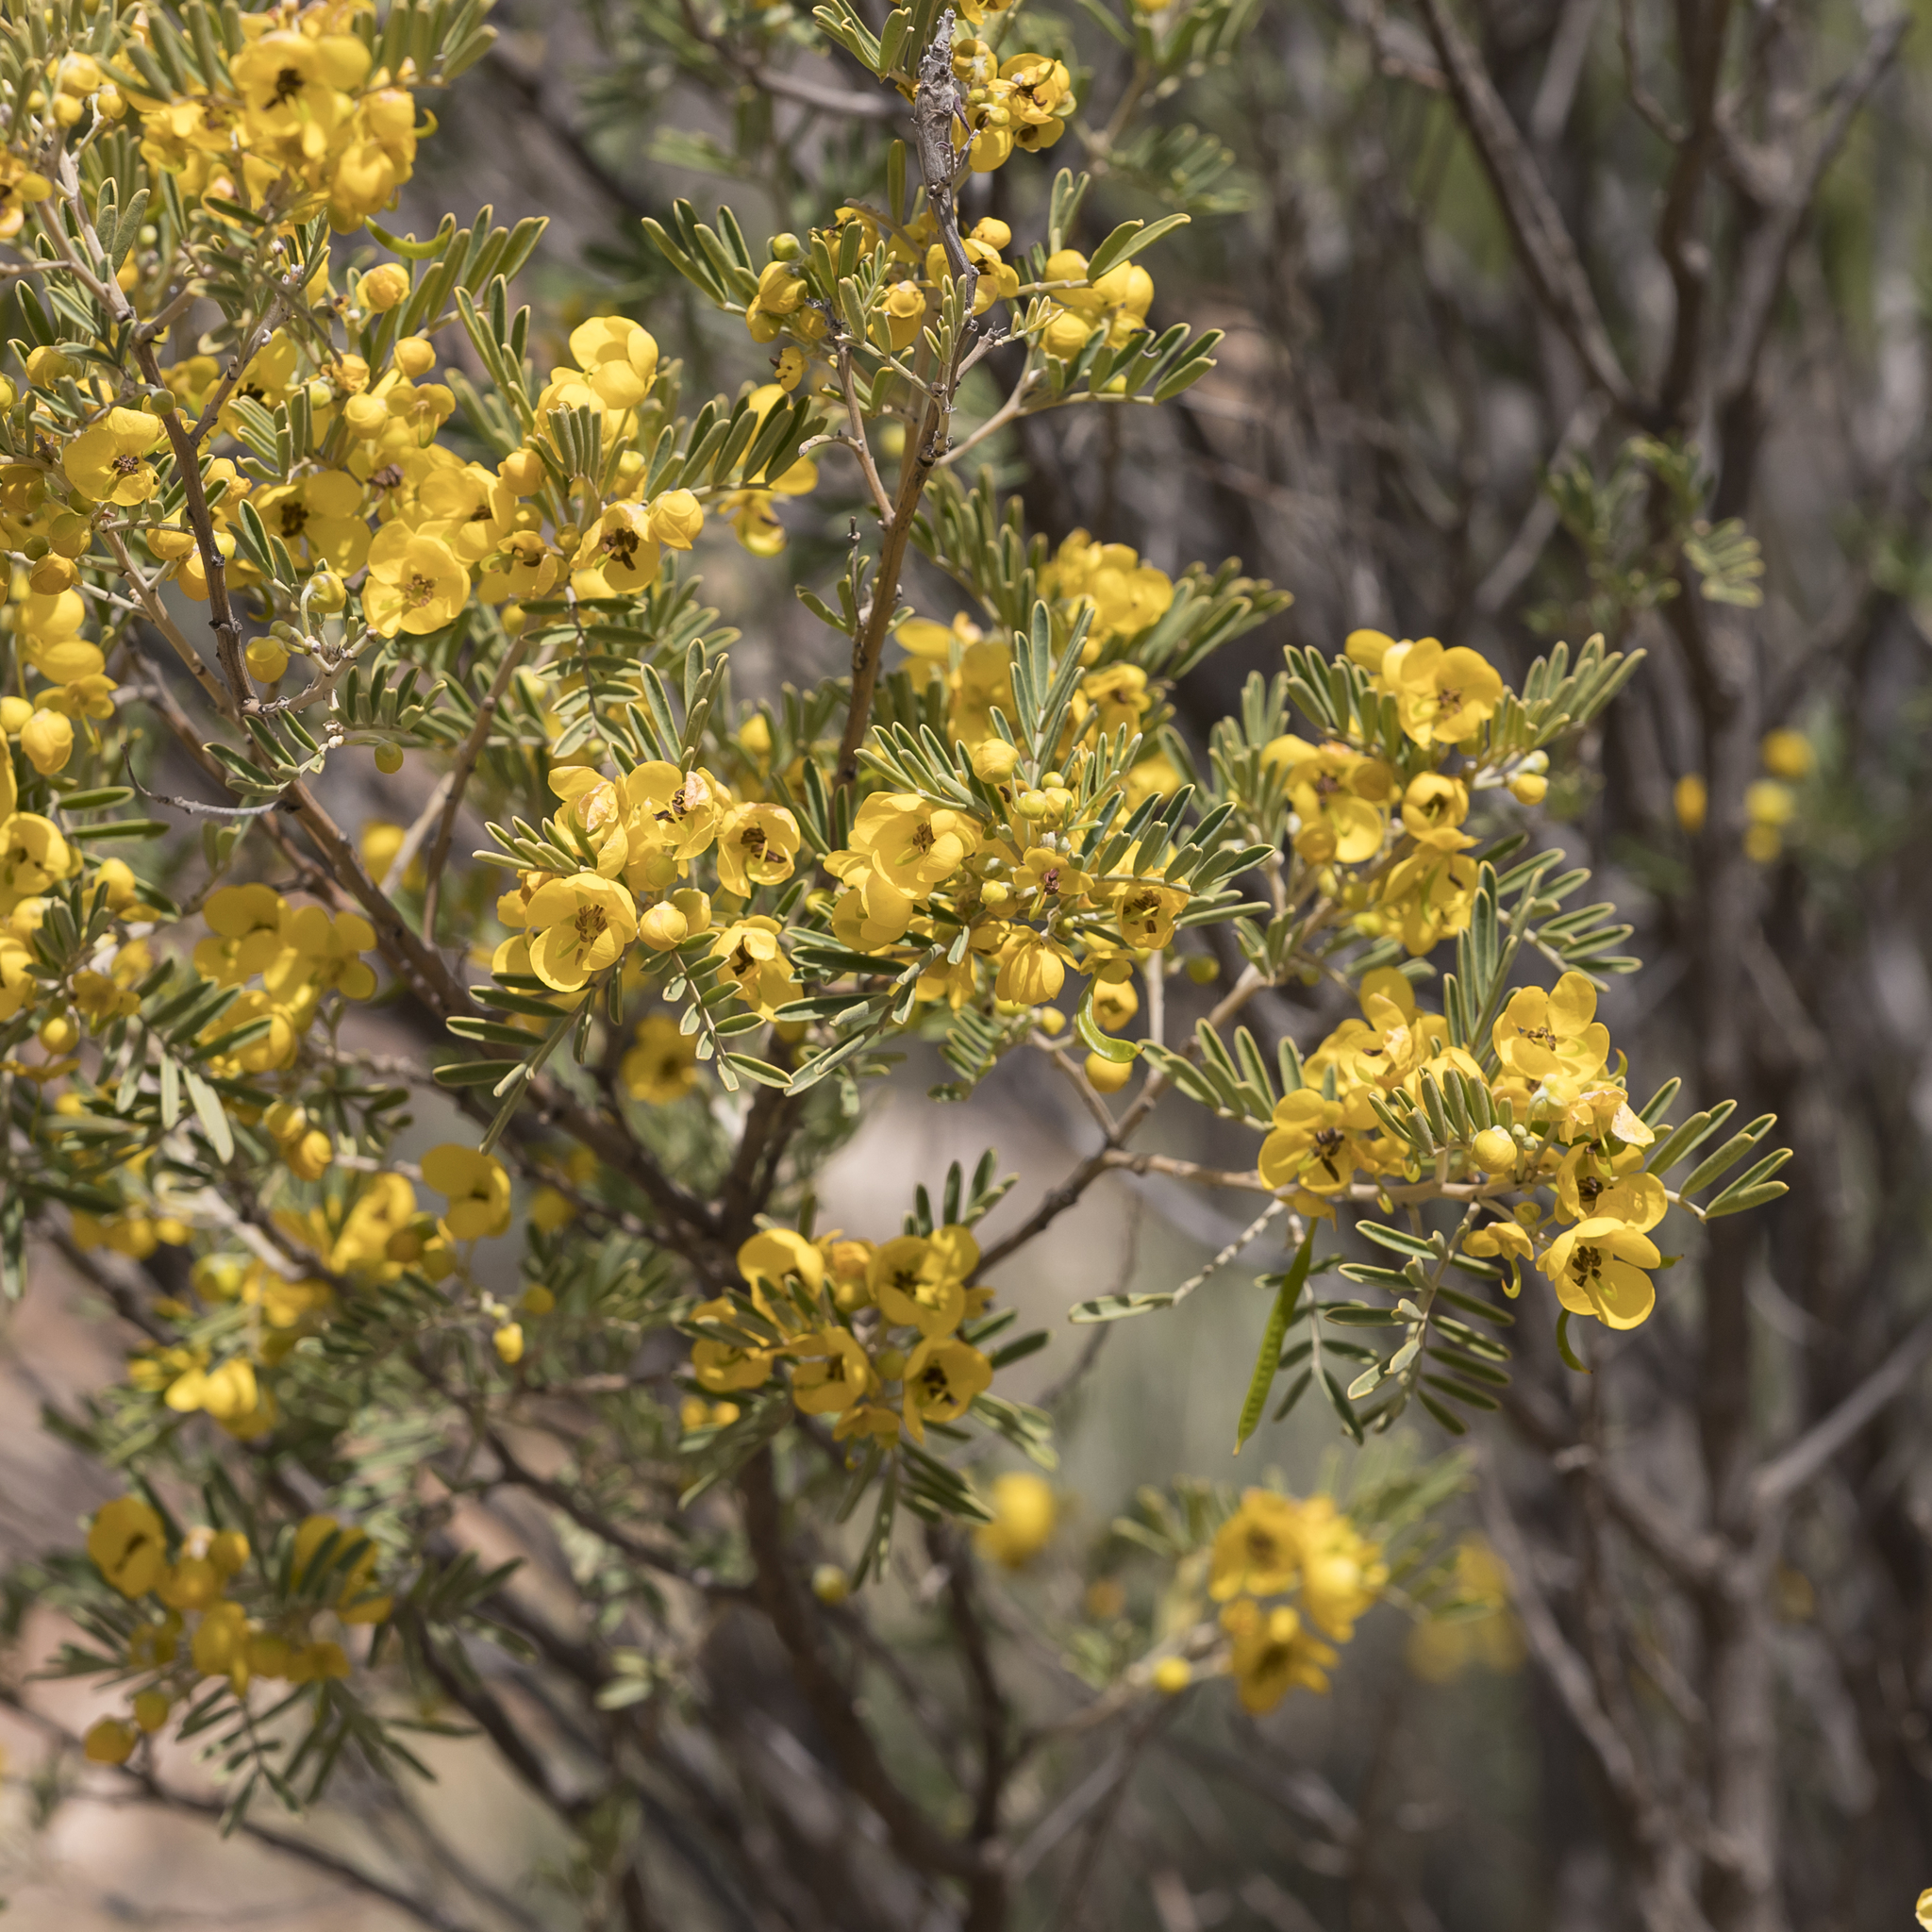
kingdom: Plantae
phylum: Tracheophyta
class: Magnoliopsida
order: Fabales
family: Fabaceae
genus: Senna
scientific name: Senna artemisioides
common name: Burnt-leaved acacia
